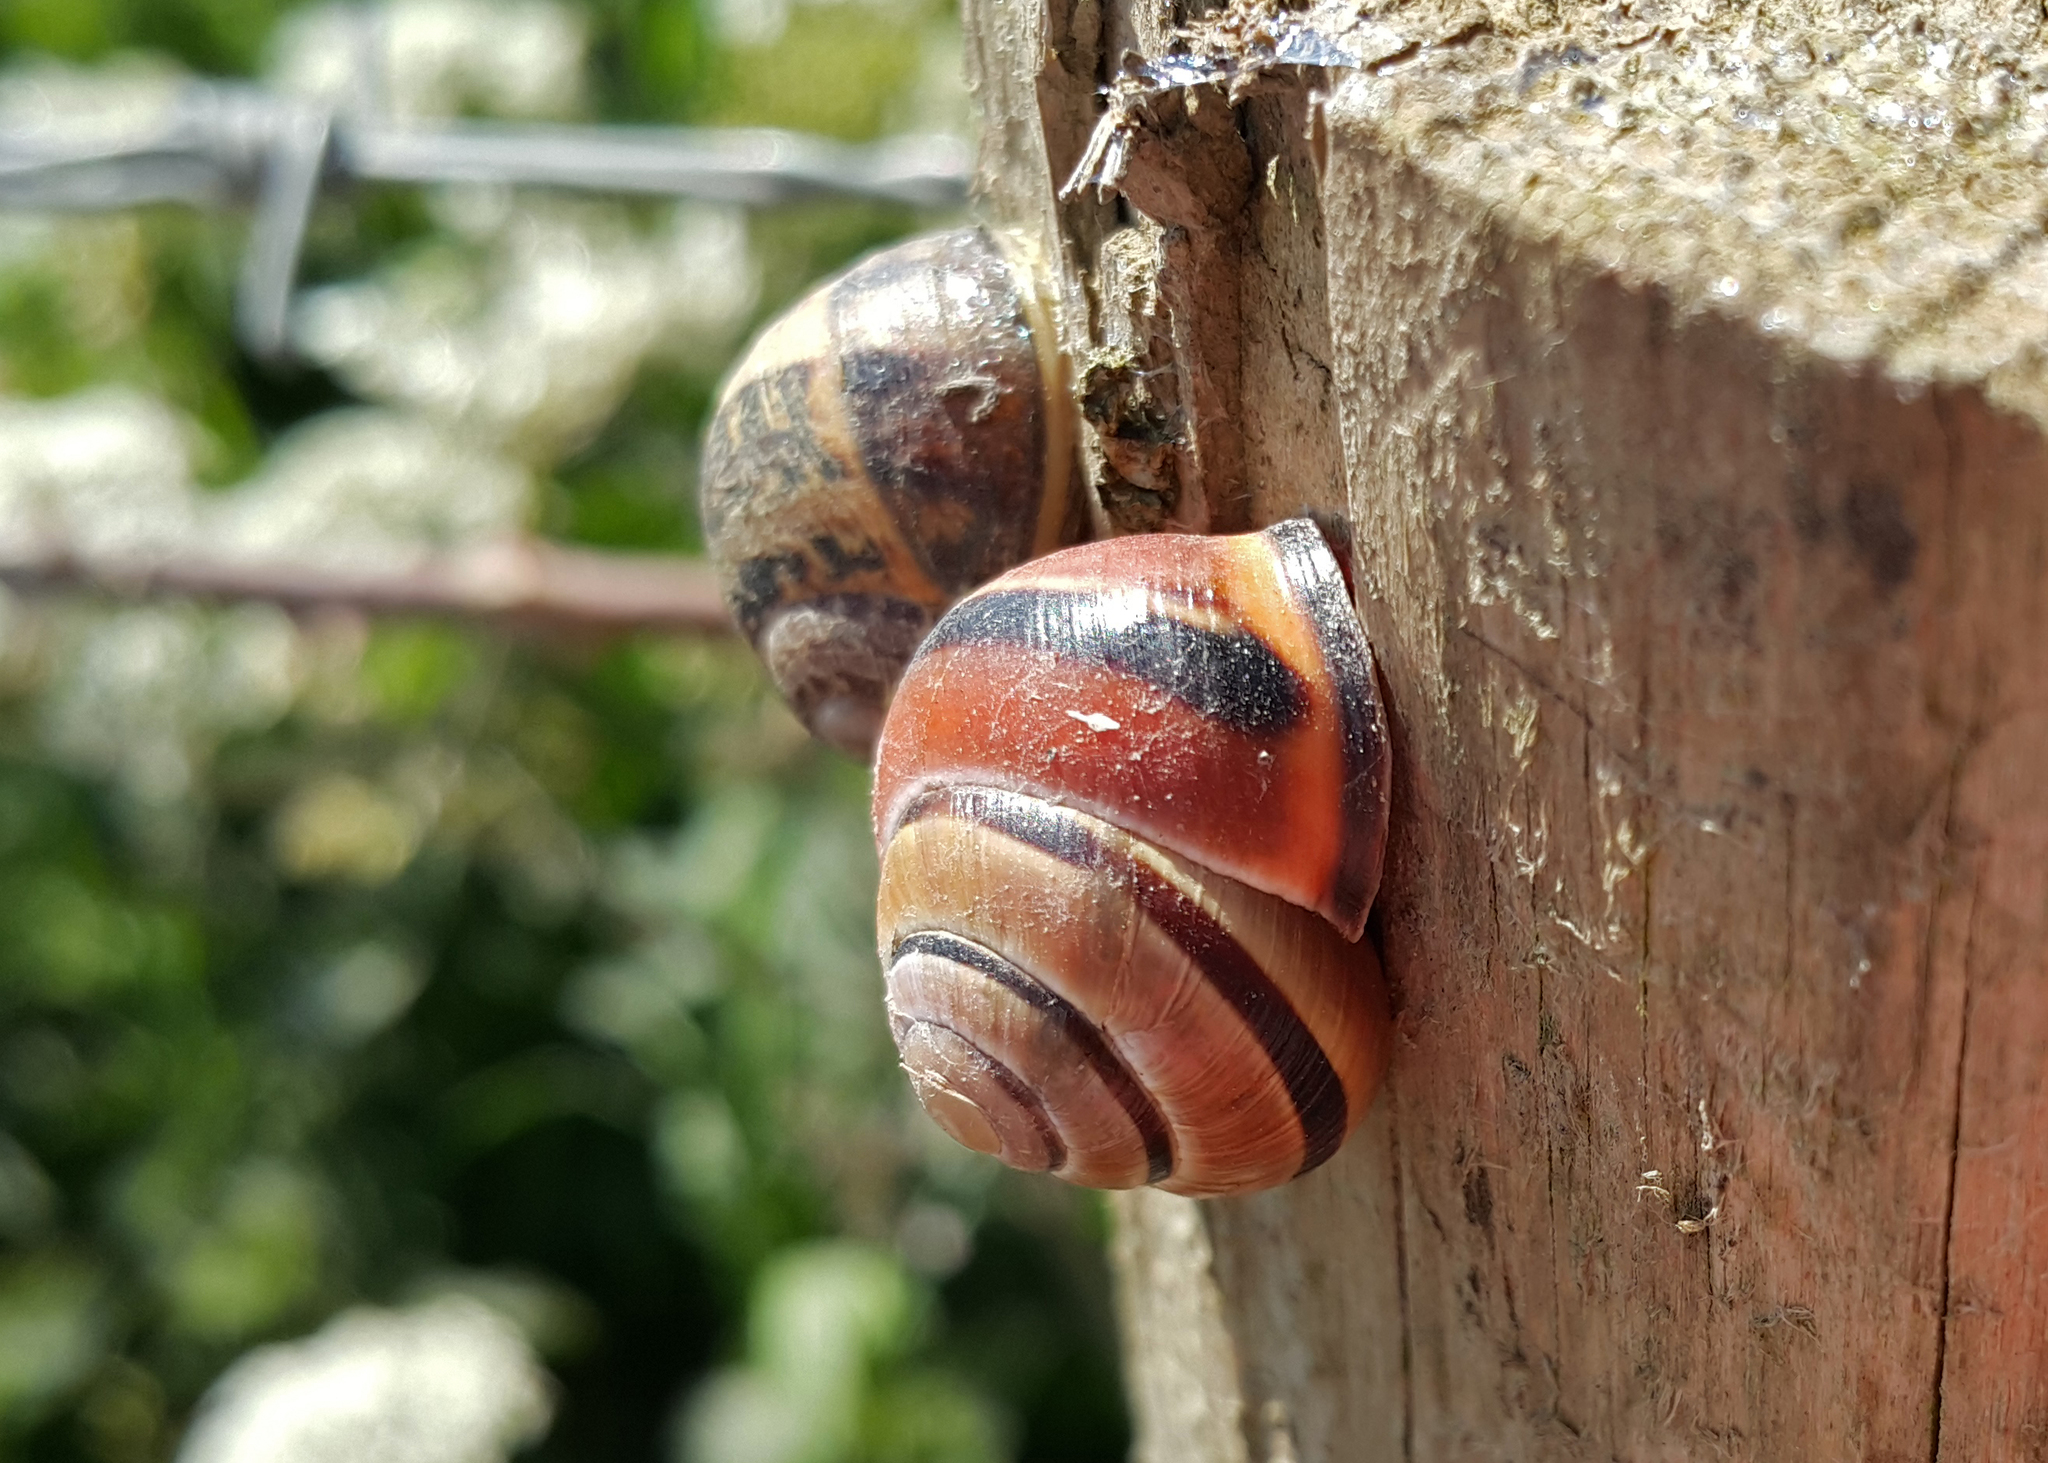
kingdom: Animalia
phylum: Mollusca
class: Gastropoda
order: Stylommatophora
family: Helicidae
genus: Cepaea
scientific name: Cepaea nemoralis
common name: Grovesnail
